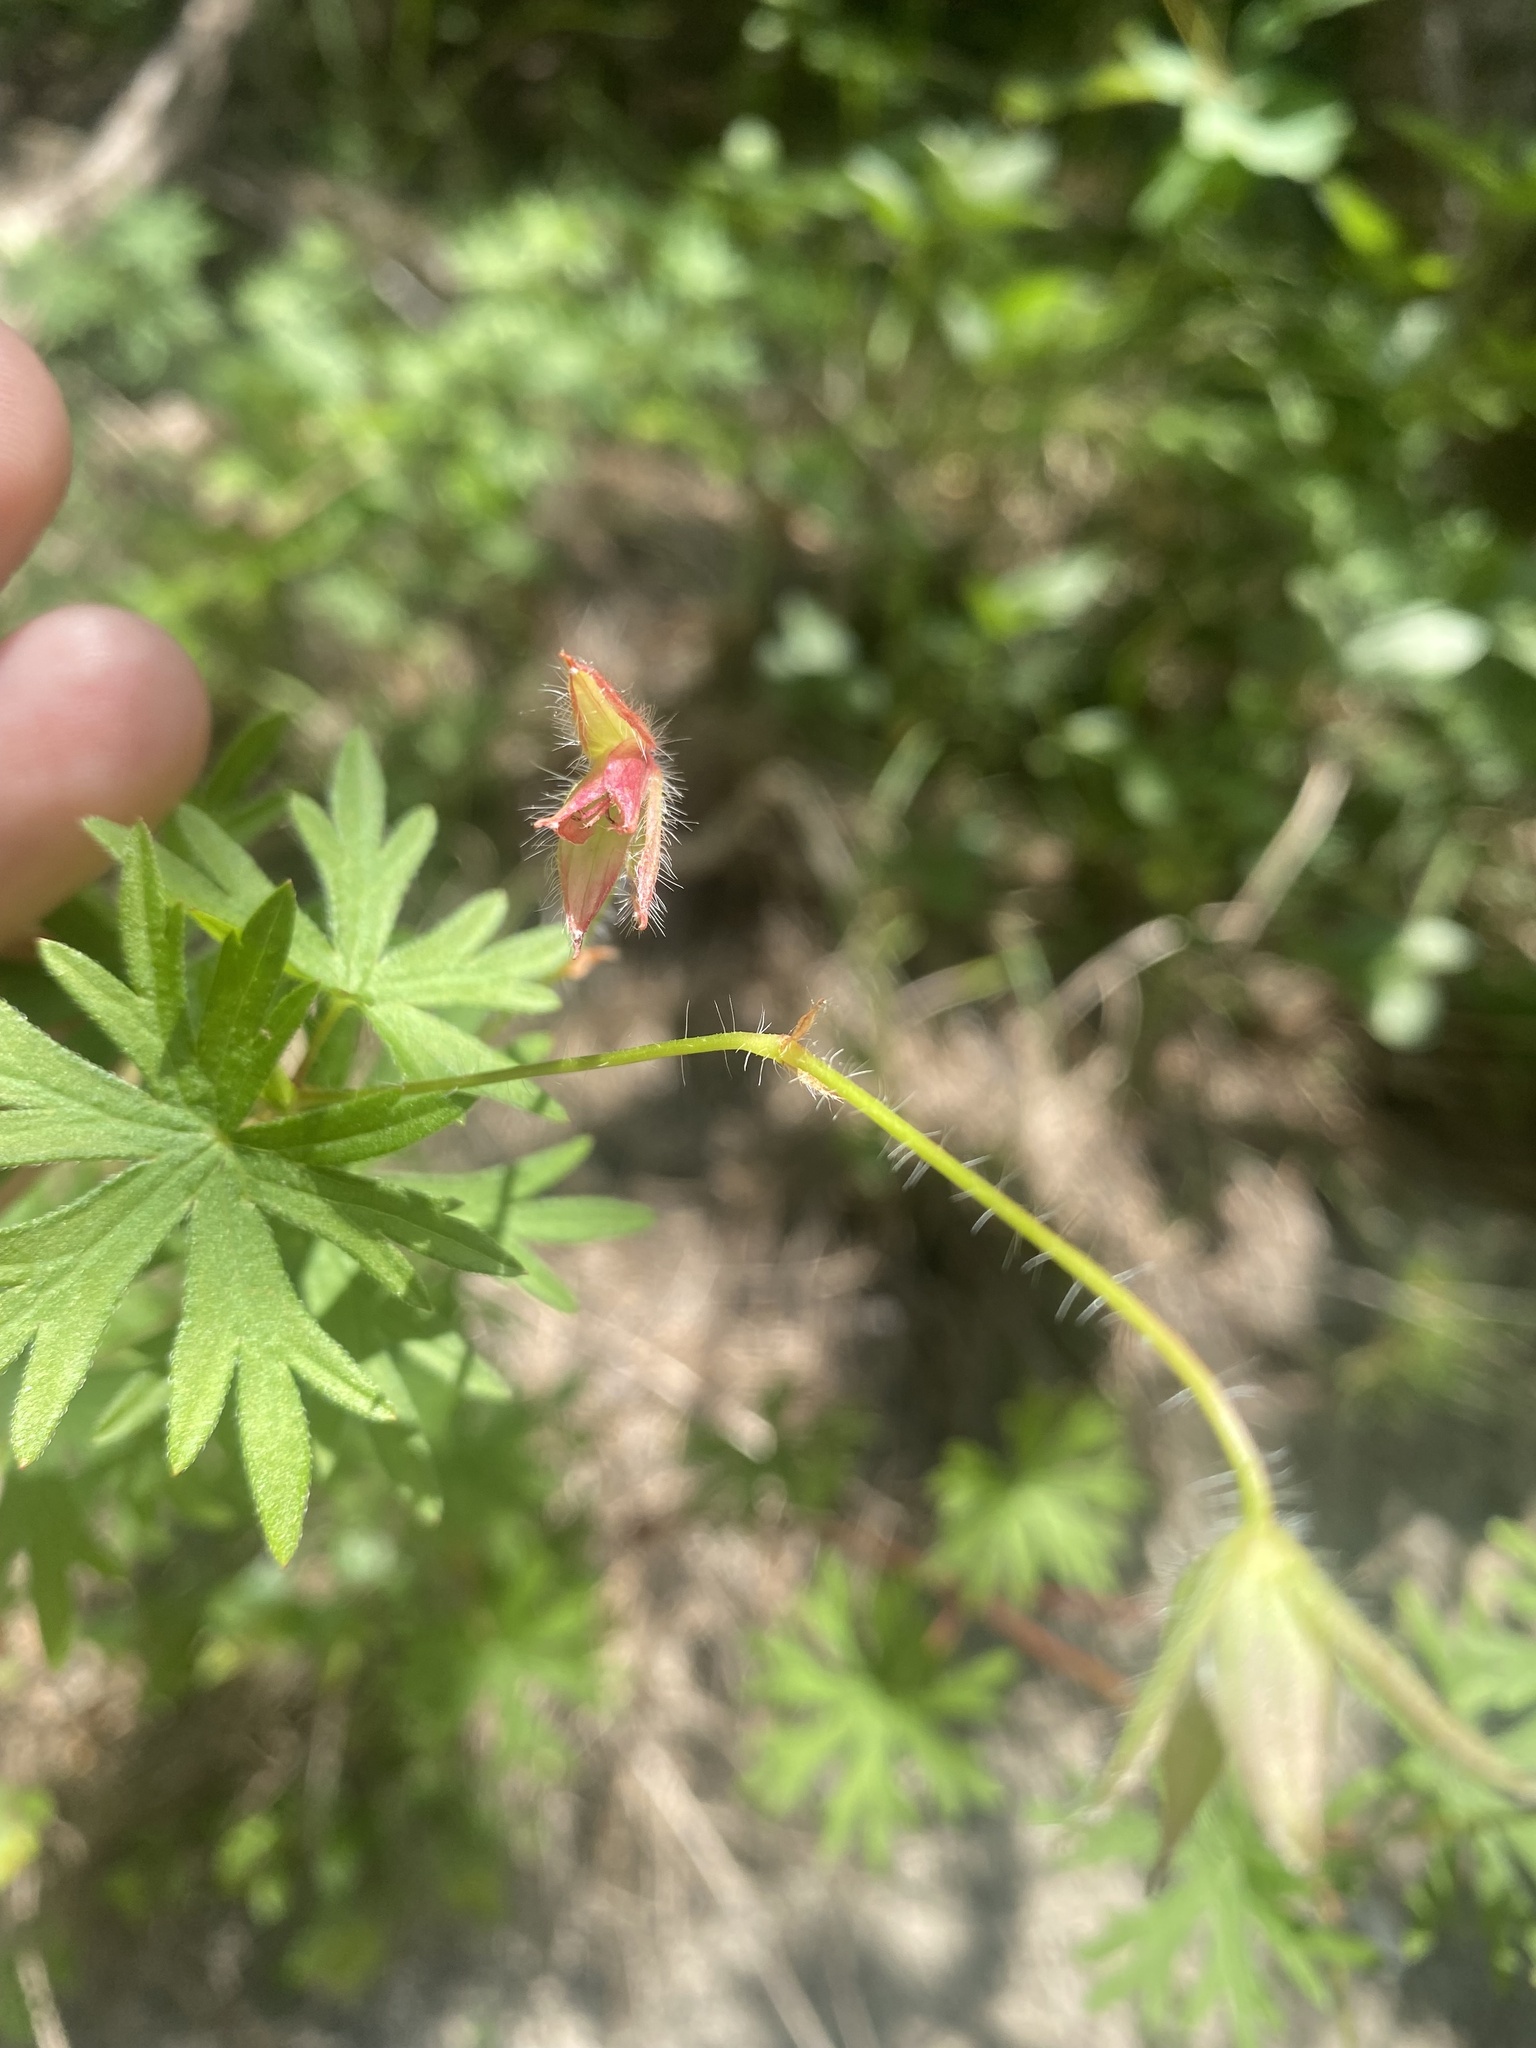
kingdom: Plantae
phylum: Tracheophyta
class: Magnoliopsida
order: Geraniales
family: Geraniaceae
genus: Geranium
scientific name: Geranium sanguineum
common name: Bloody crane's-bill
